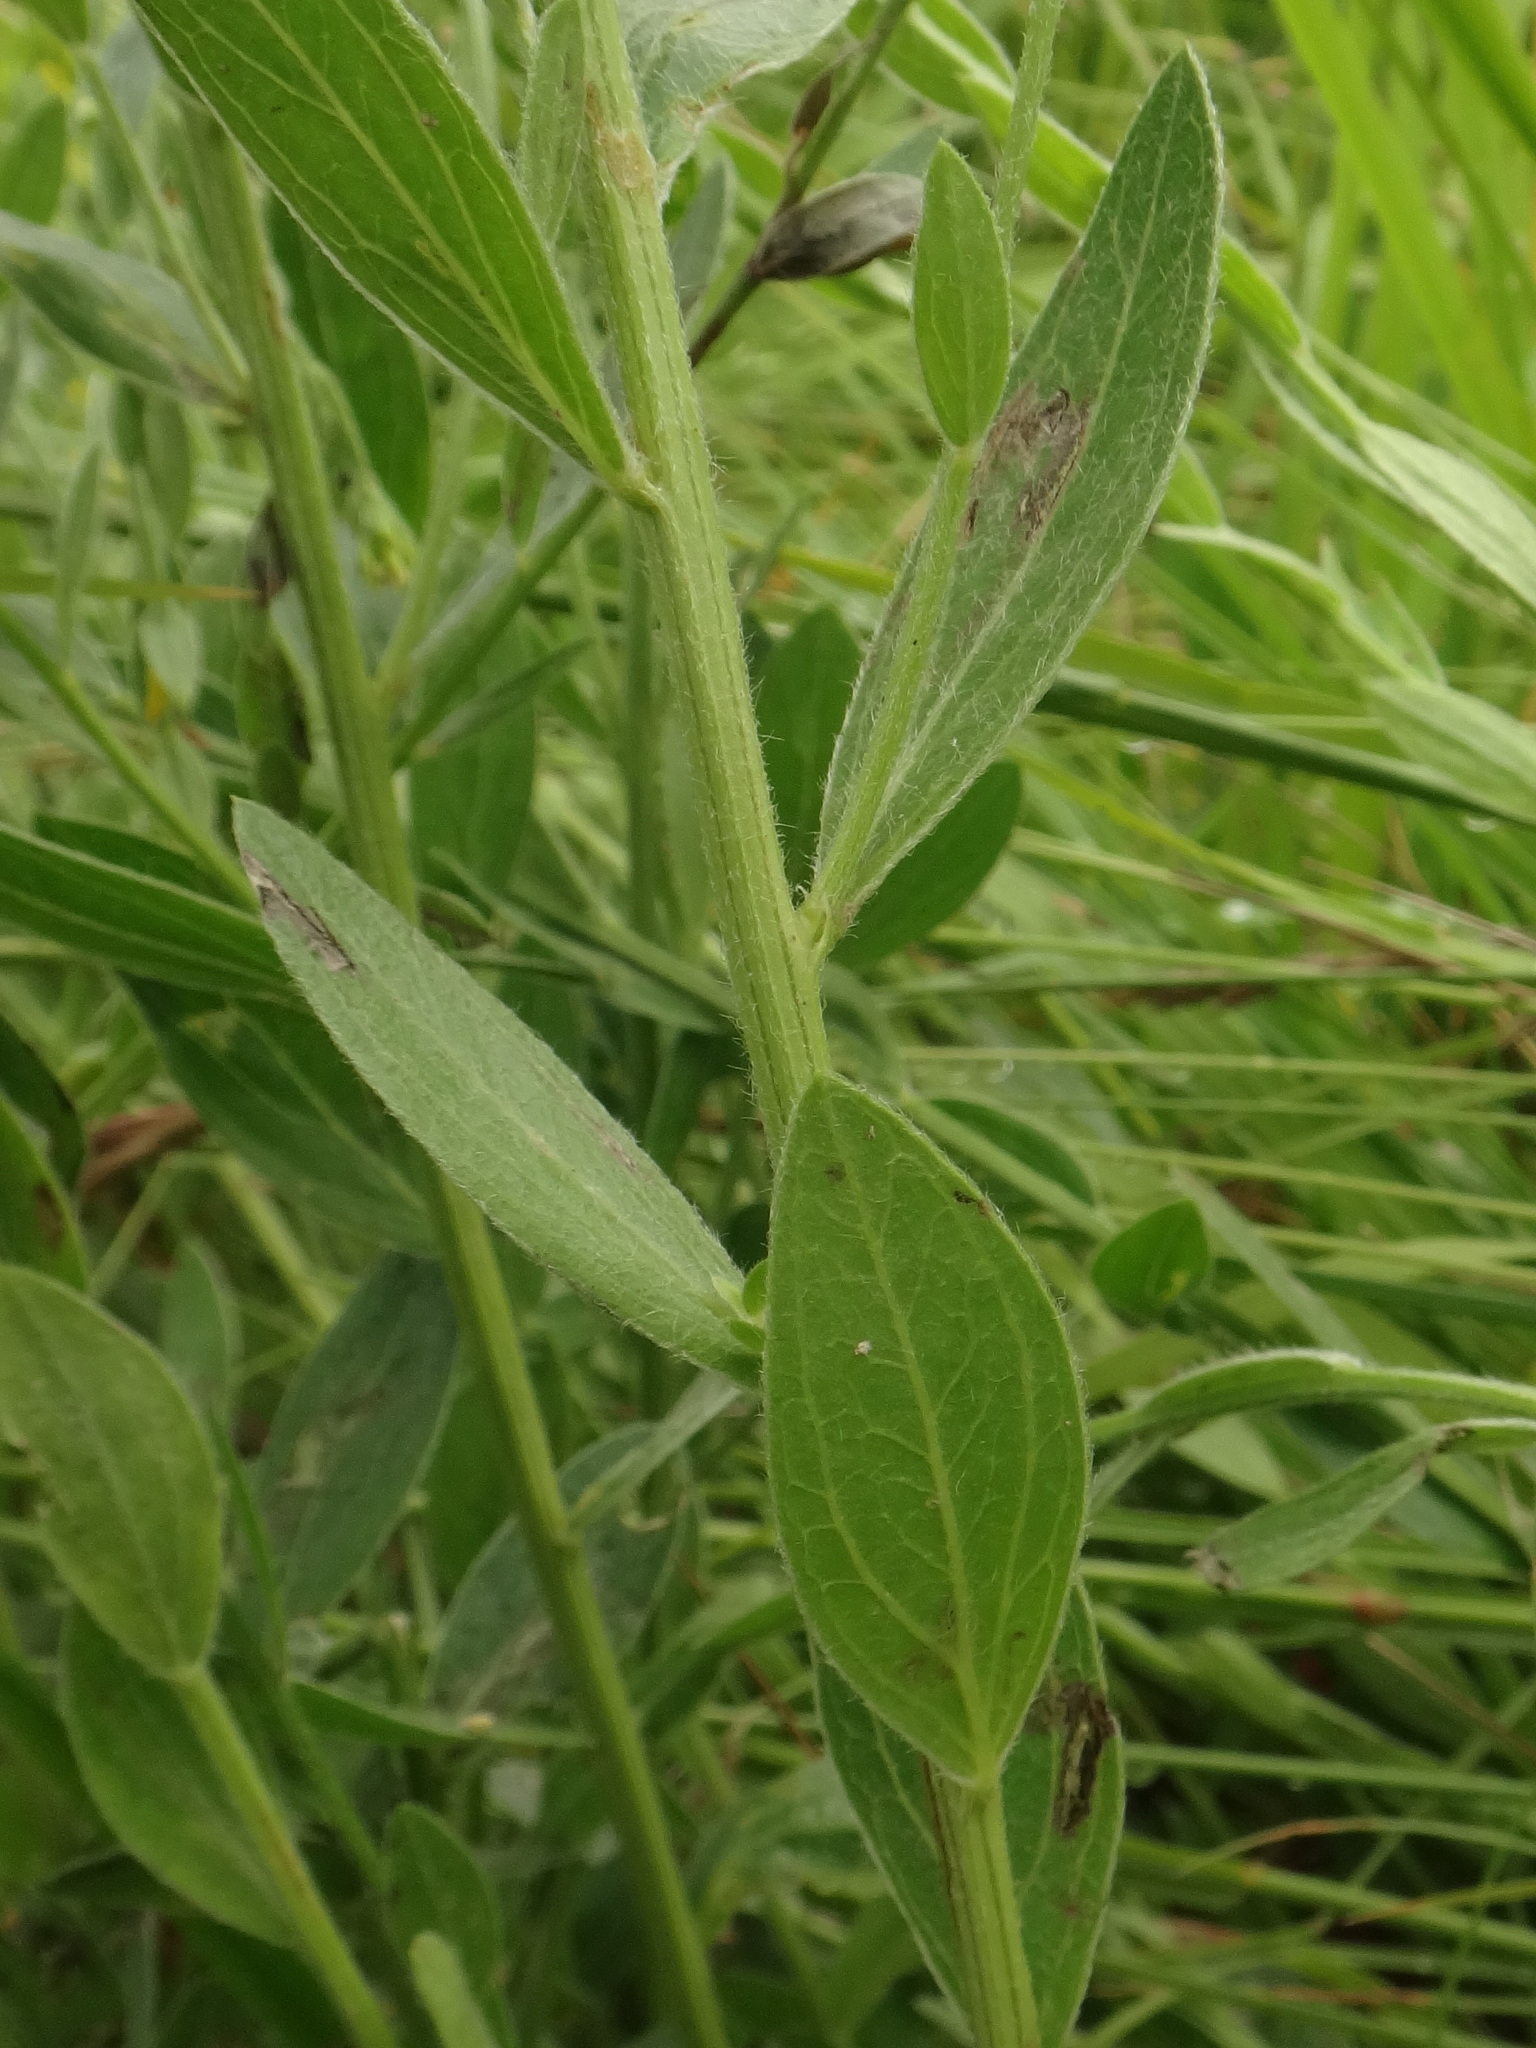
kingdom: Plantae
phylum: Tracheophyta
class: Magnoliopsida
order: Fabales
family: Fabaceae
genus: Genista
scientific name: Genista tinctoria
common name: Dyer's greenweed
